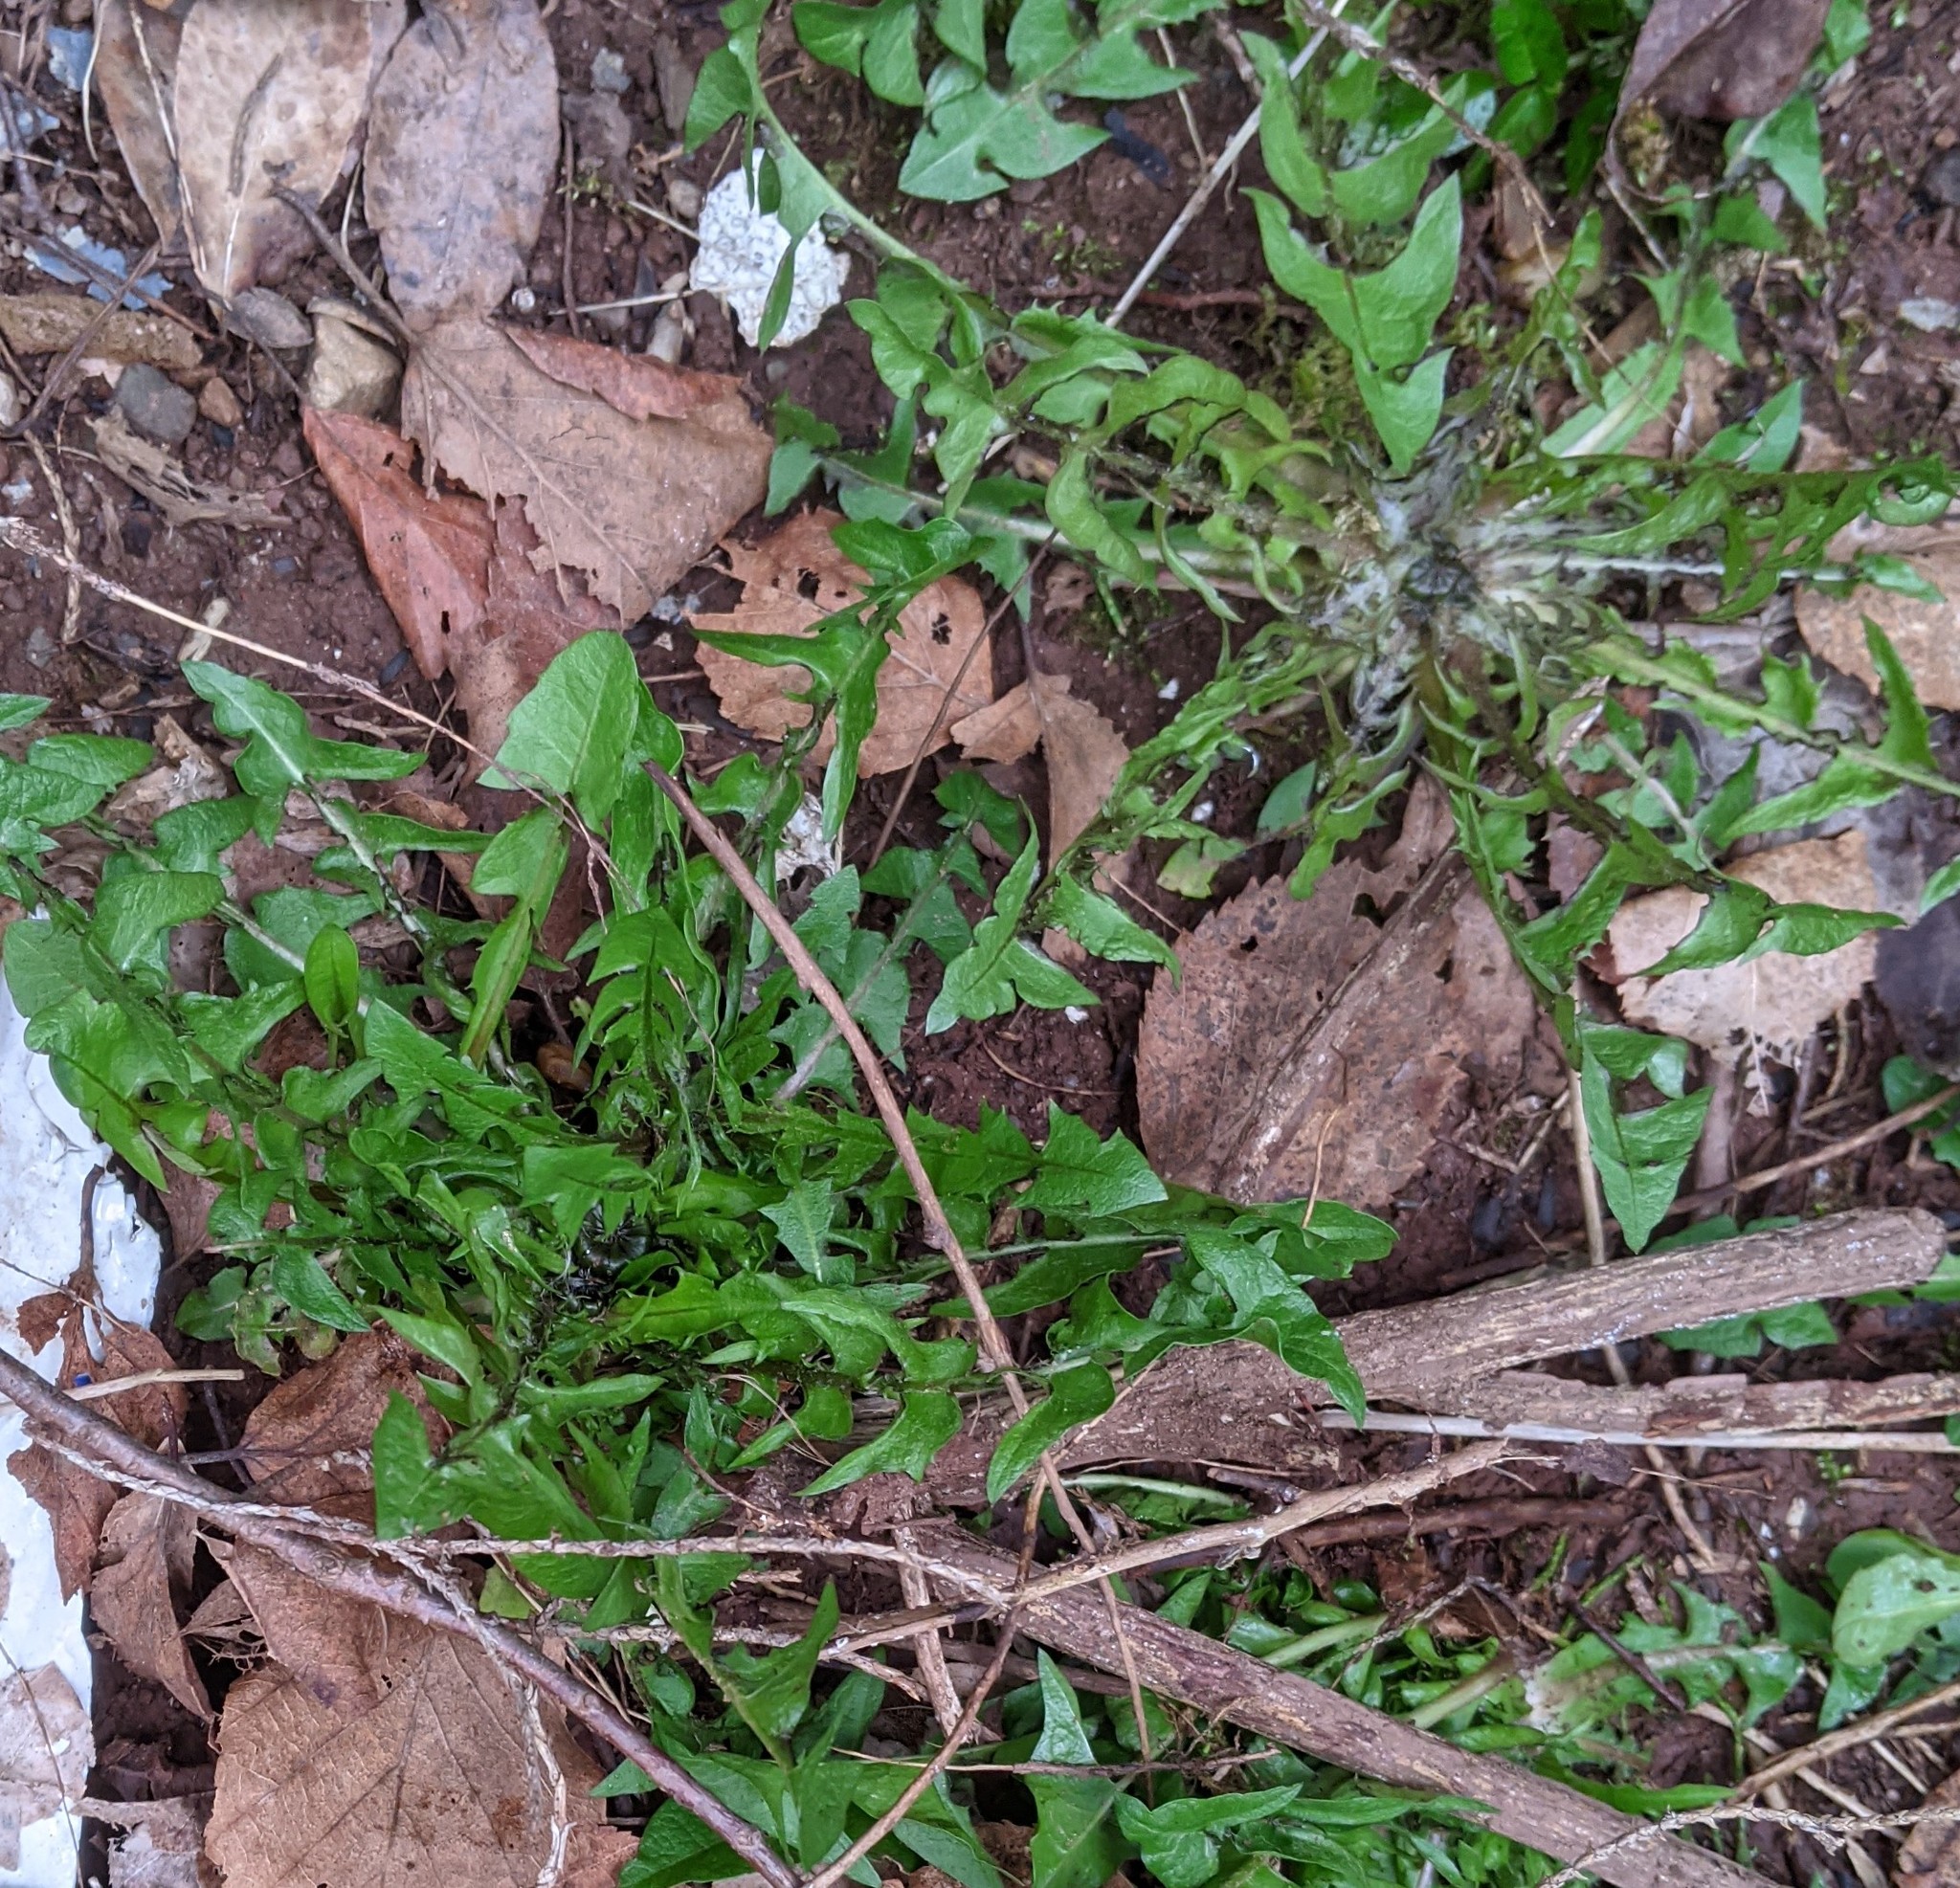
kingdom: Plantae
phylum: Tracheophyta
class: Magnoliopsida
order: Asterales
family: Asteraceae
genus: Taraxacum
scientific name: Taraxacum officinale
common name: Common dandelion
